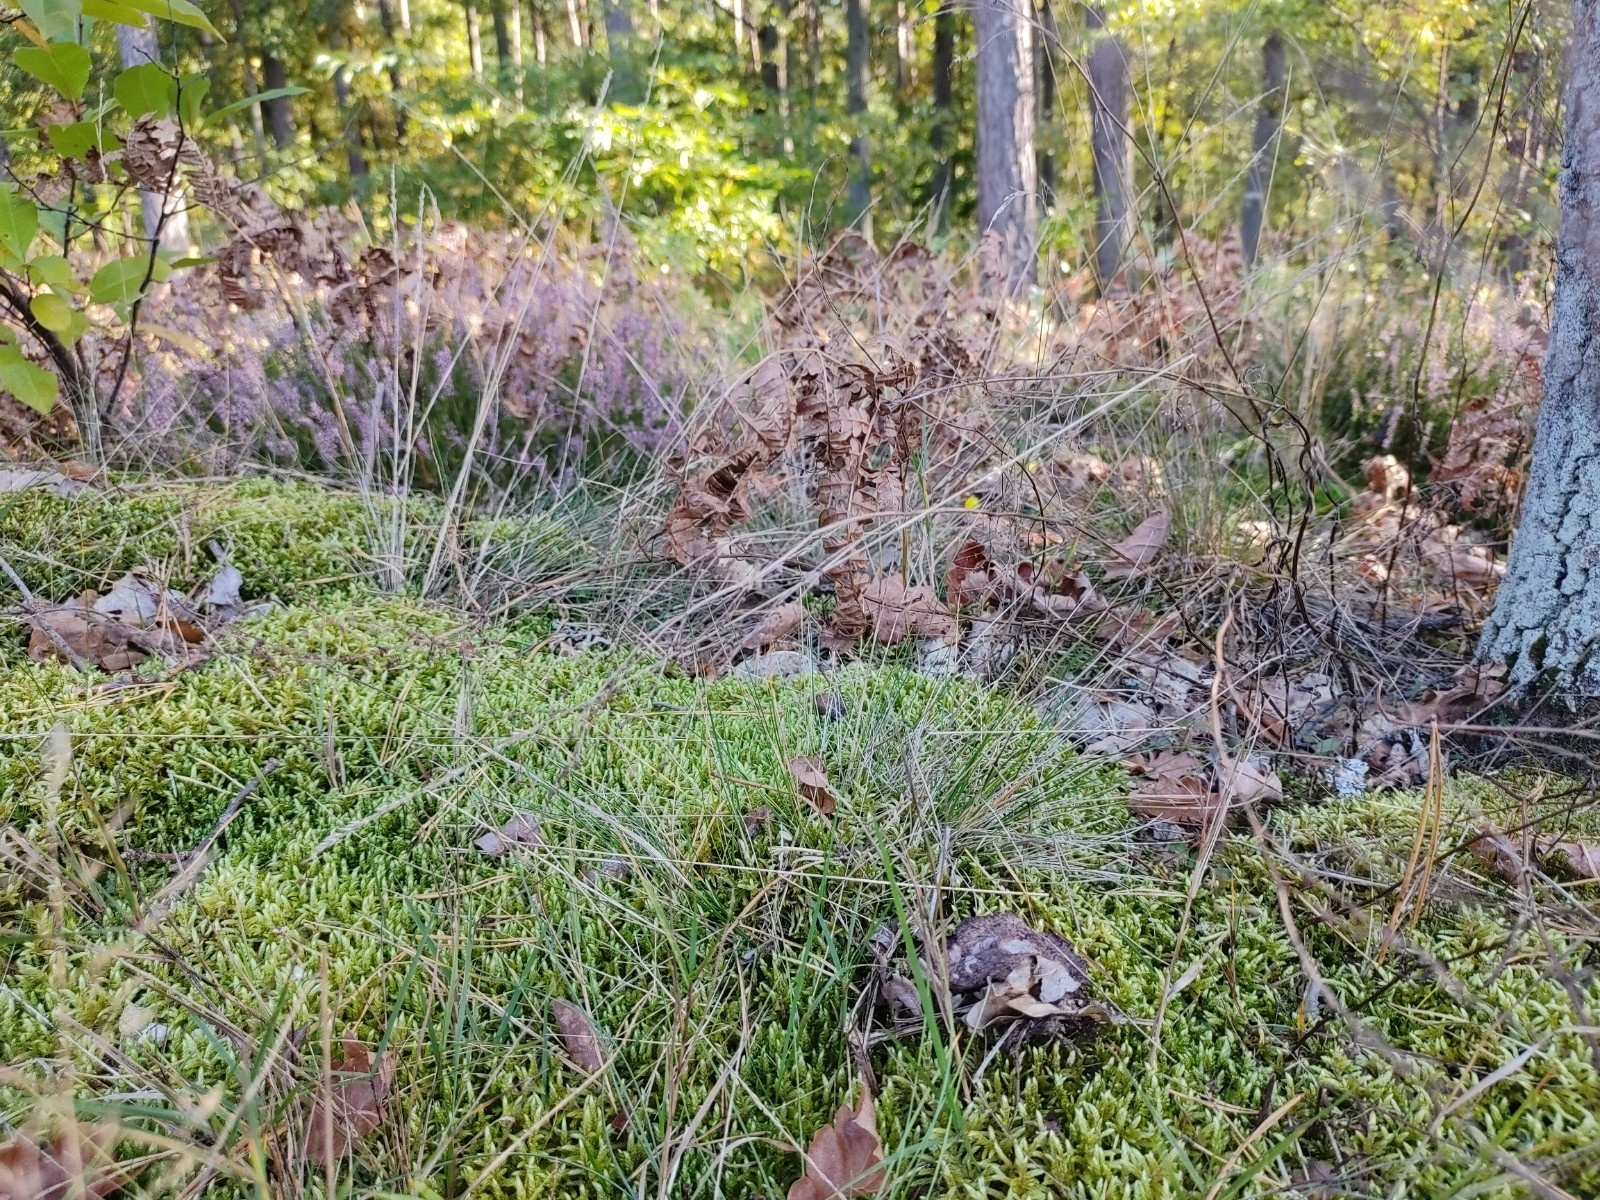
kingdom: Plantae
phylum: Bryophyta
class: Bryopsida
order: Hypnales
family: Hylocomiaceae
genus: Pleurozium
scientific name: Pleurozium schreberi
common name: Red-stemmed feather moss
